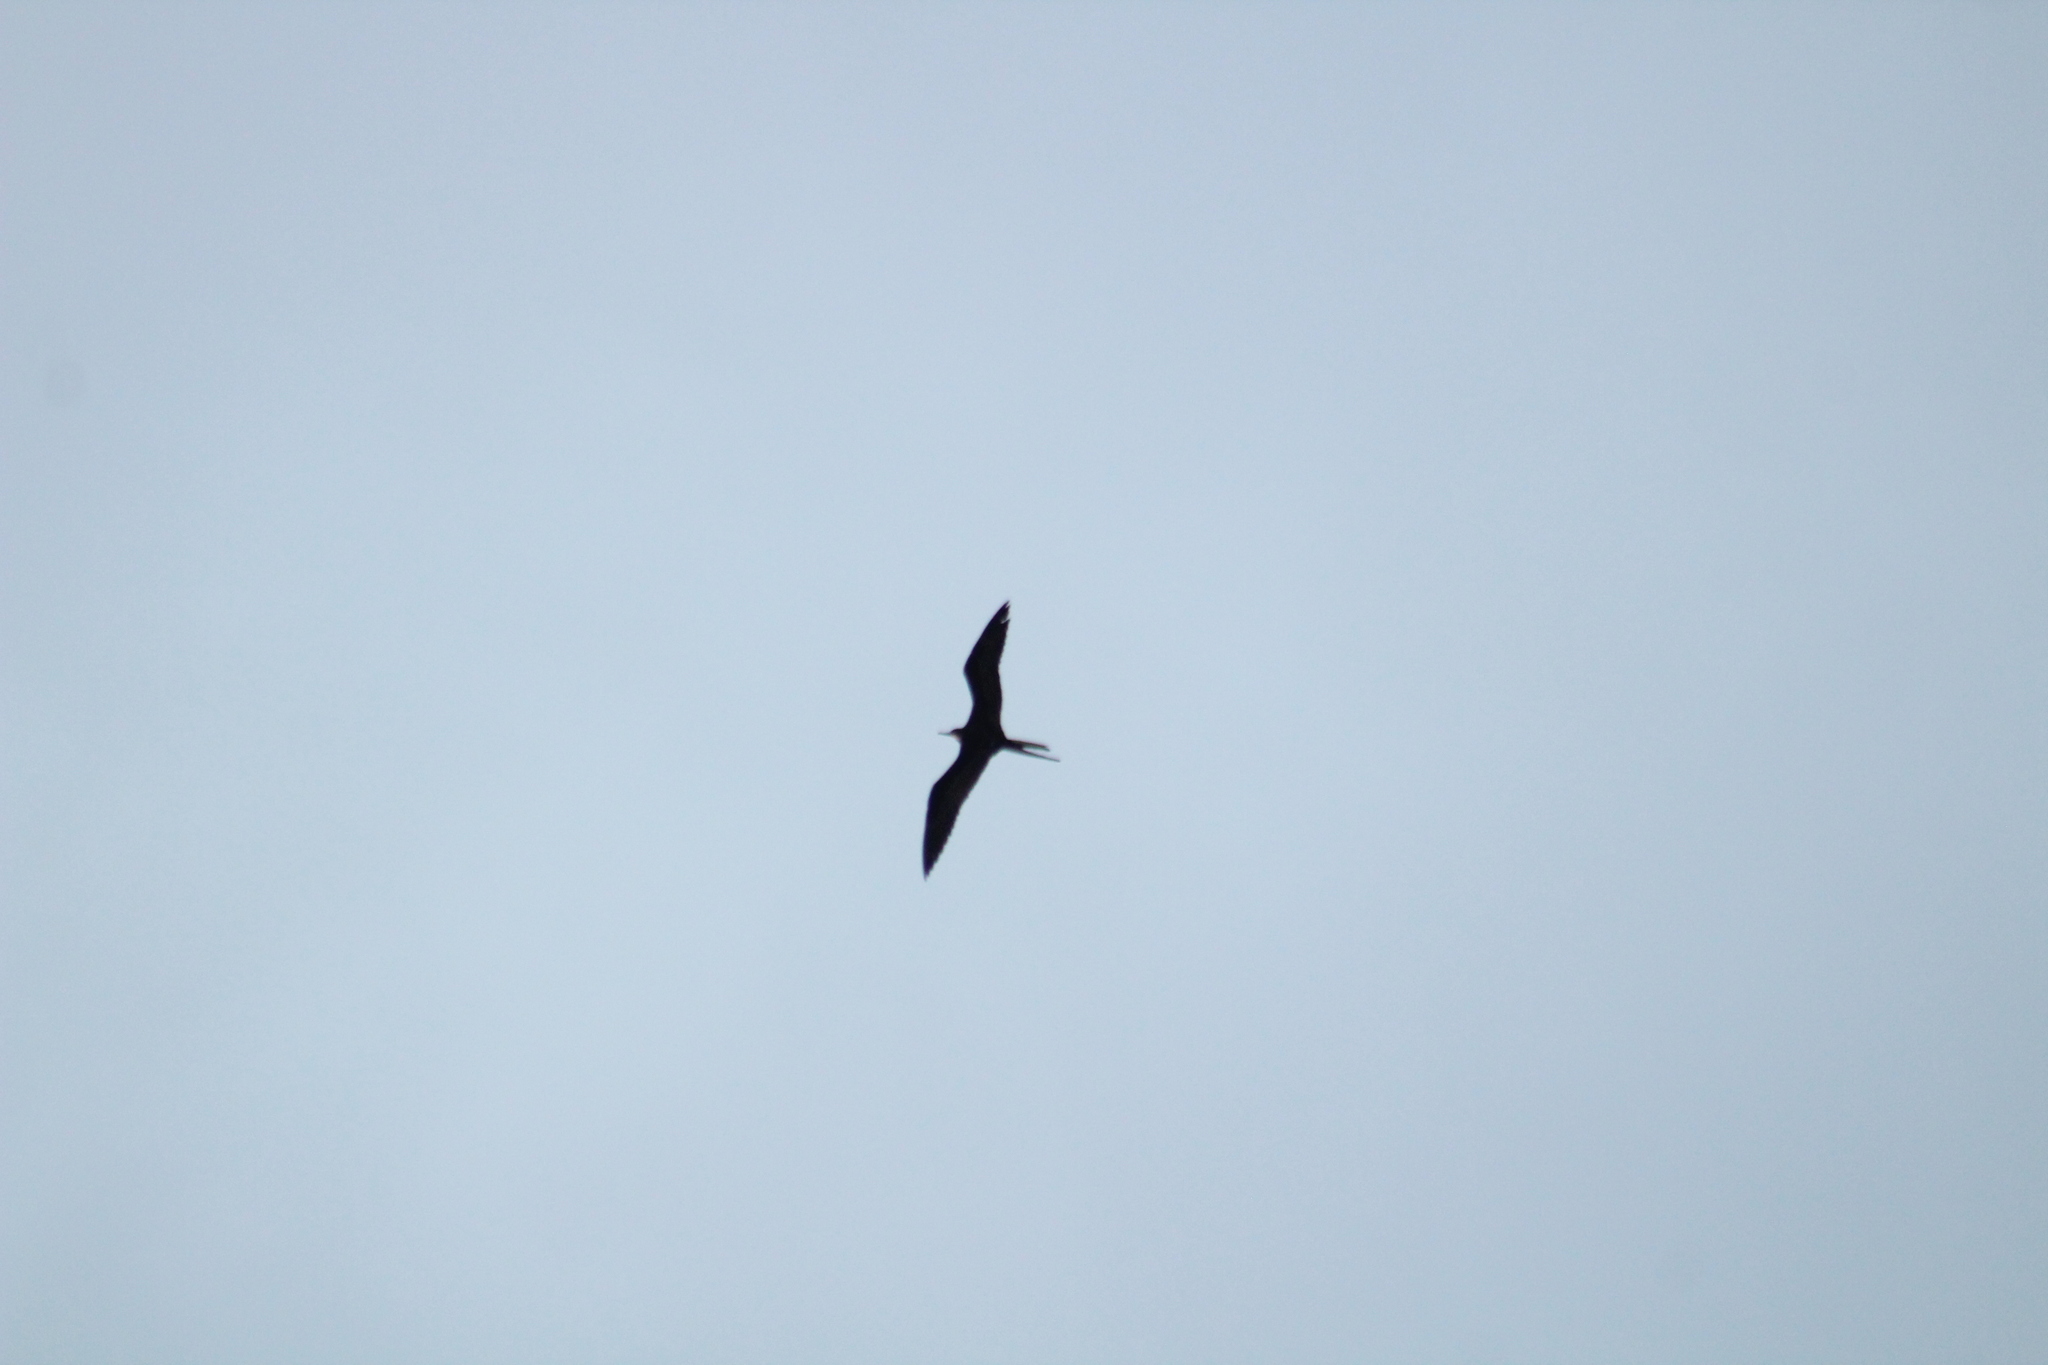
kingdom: Animalia
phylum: Chordata
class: Aves
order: Suliformes
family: Fregatidae
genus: Fregata
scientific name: Fregata magnificens
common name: Magnificent frigatebird
